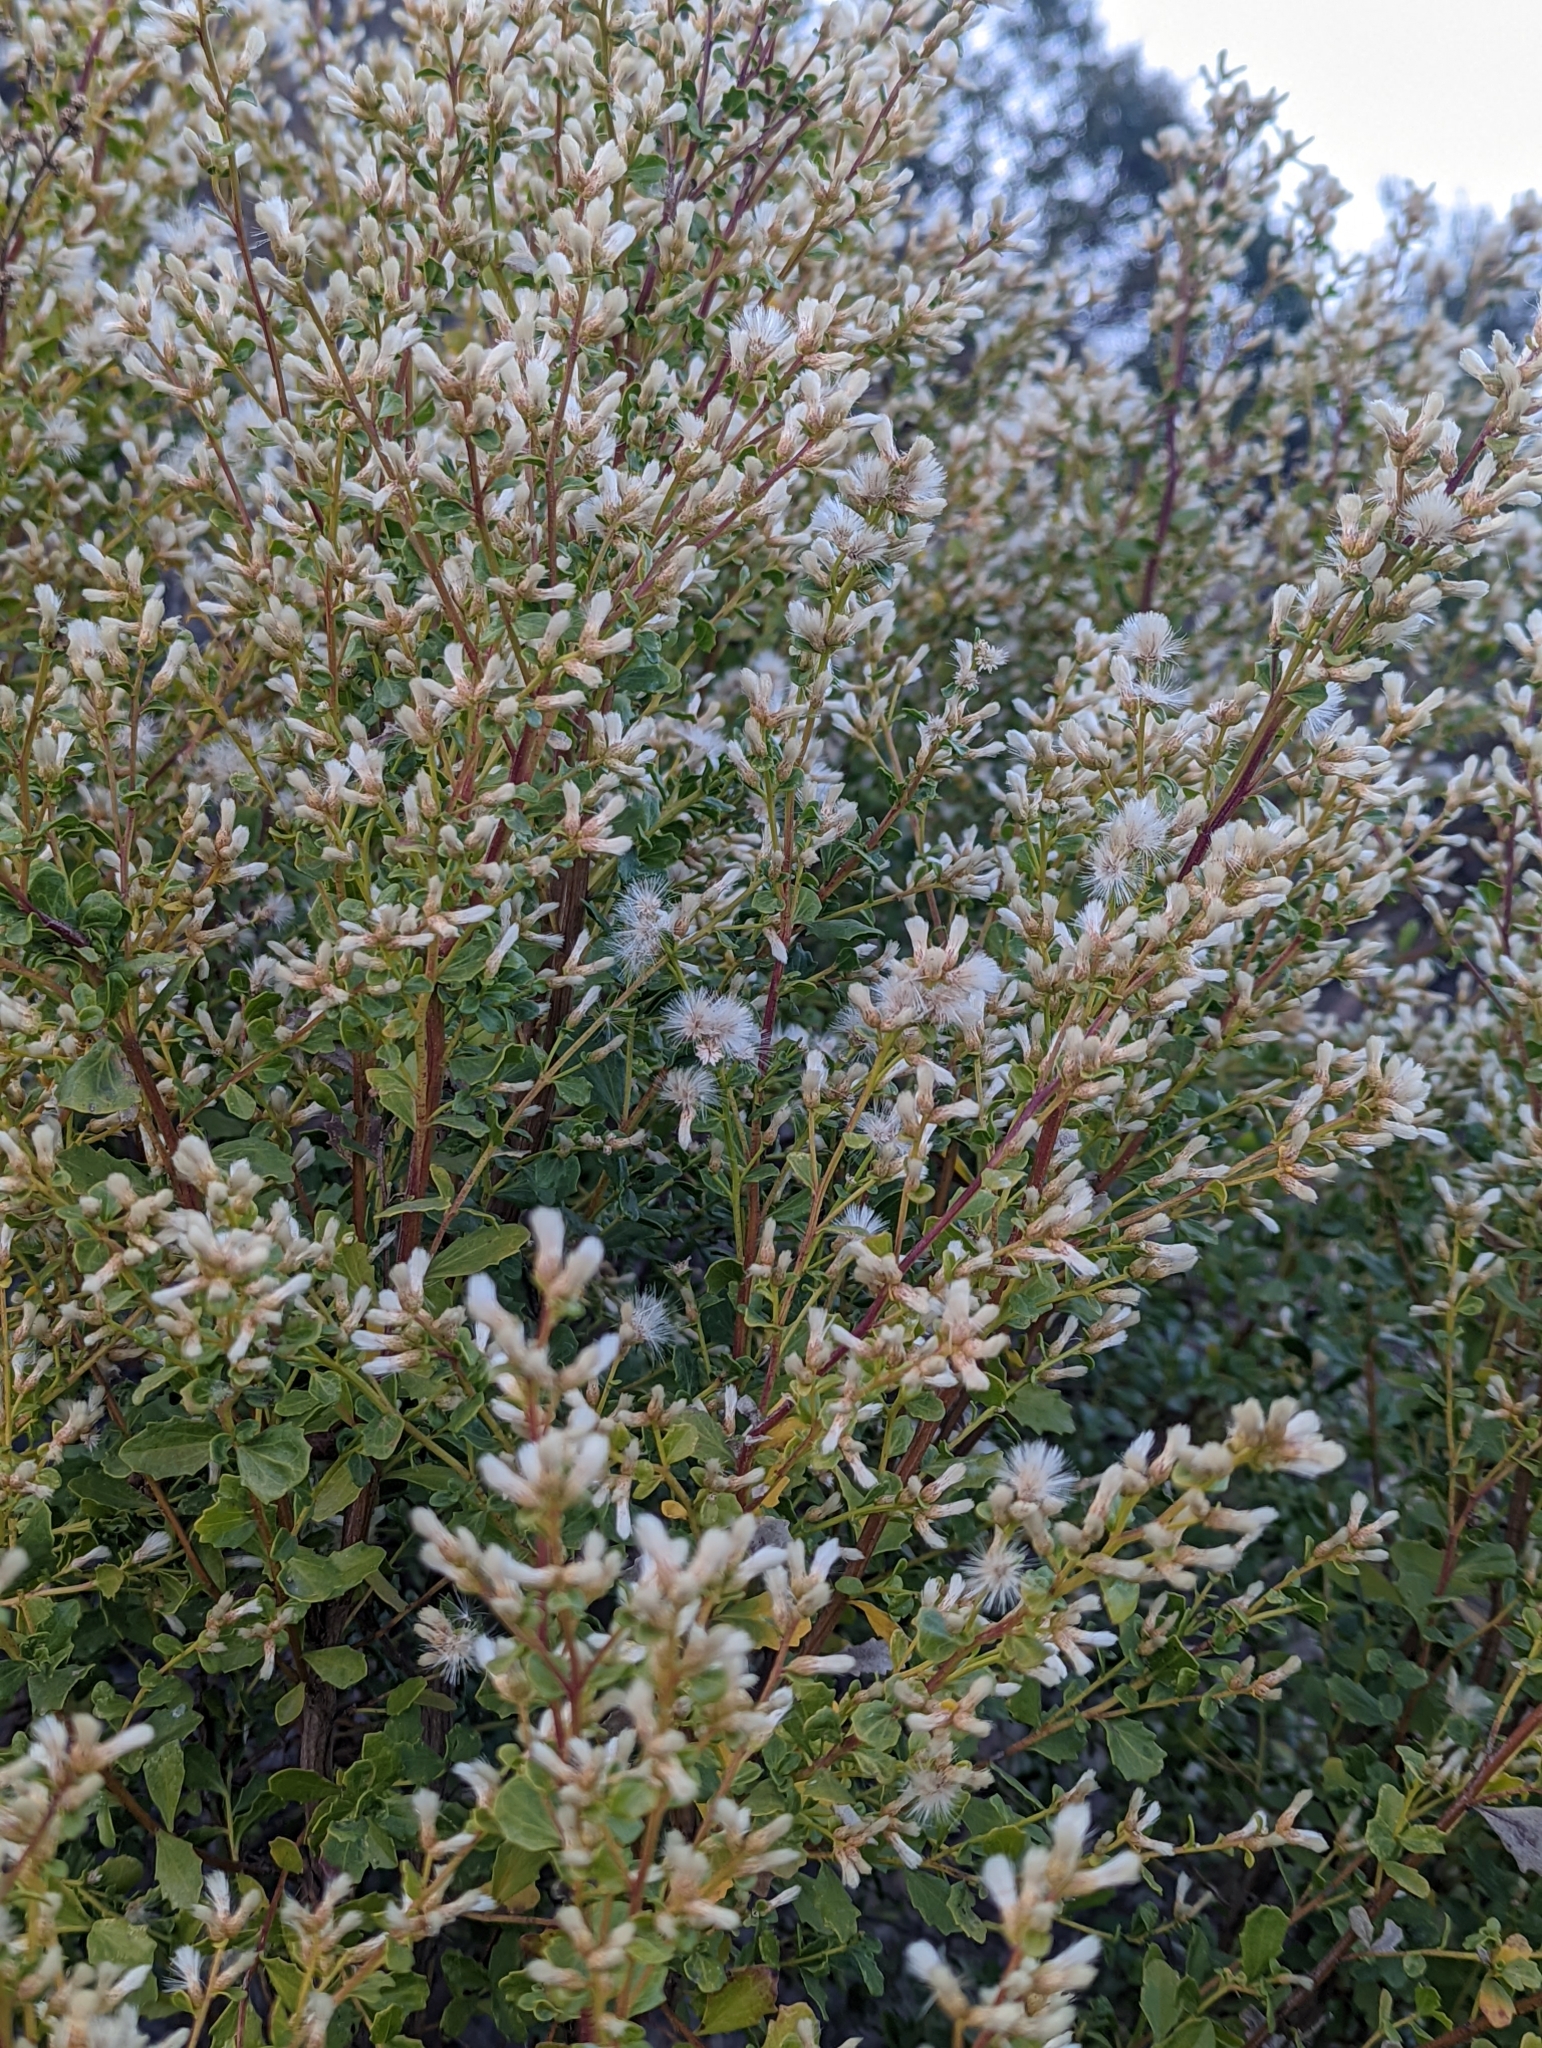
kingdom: Plantae
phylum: Tracheophyta
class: Magnoliopsida
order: Asterales
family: Asteraceae
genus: Baccharis
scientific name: Baccharis pilularis
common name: Coyotebrush
